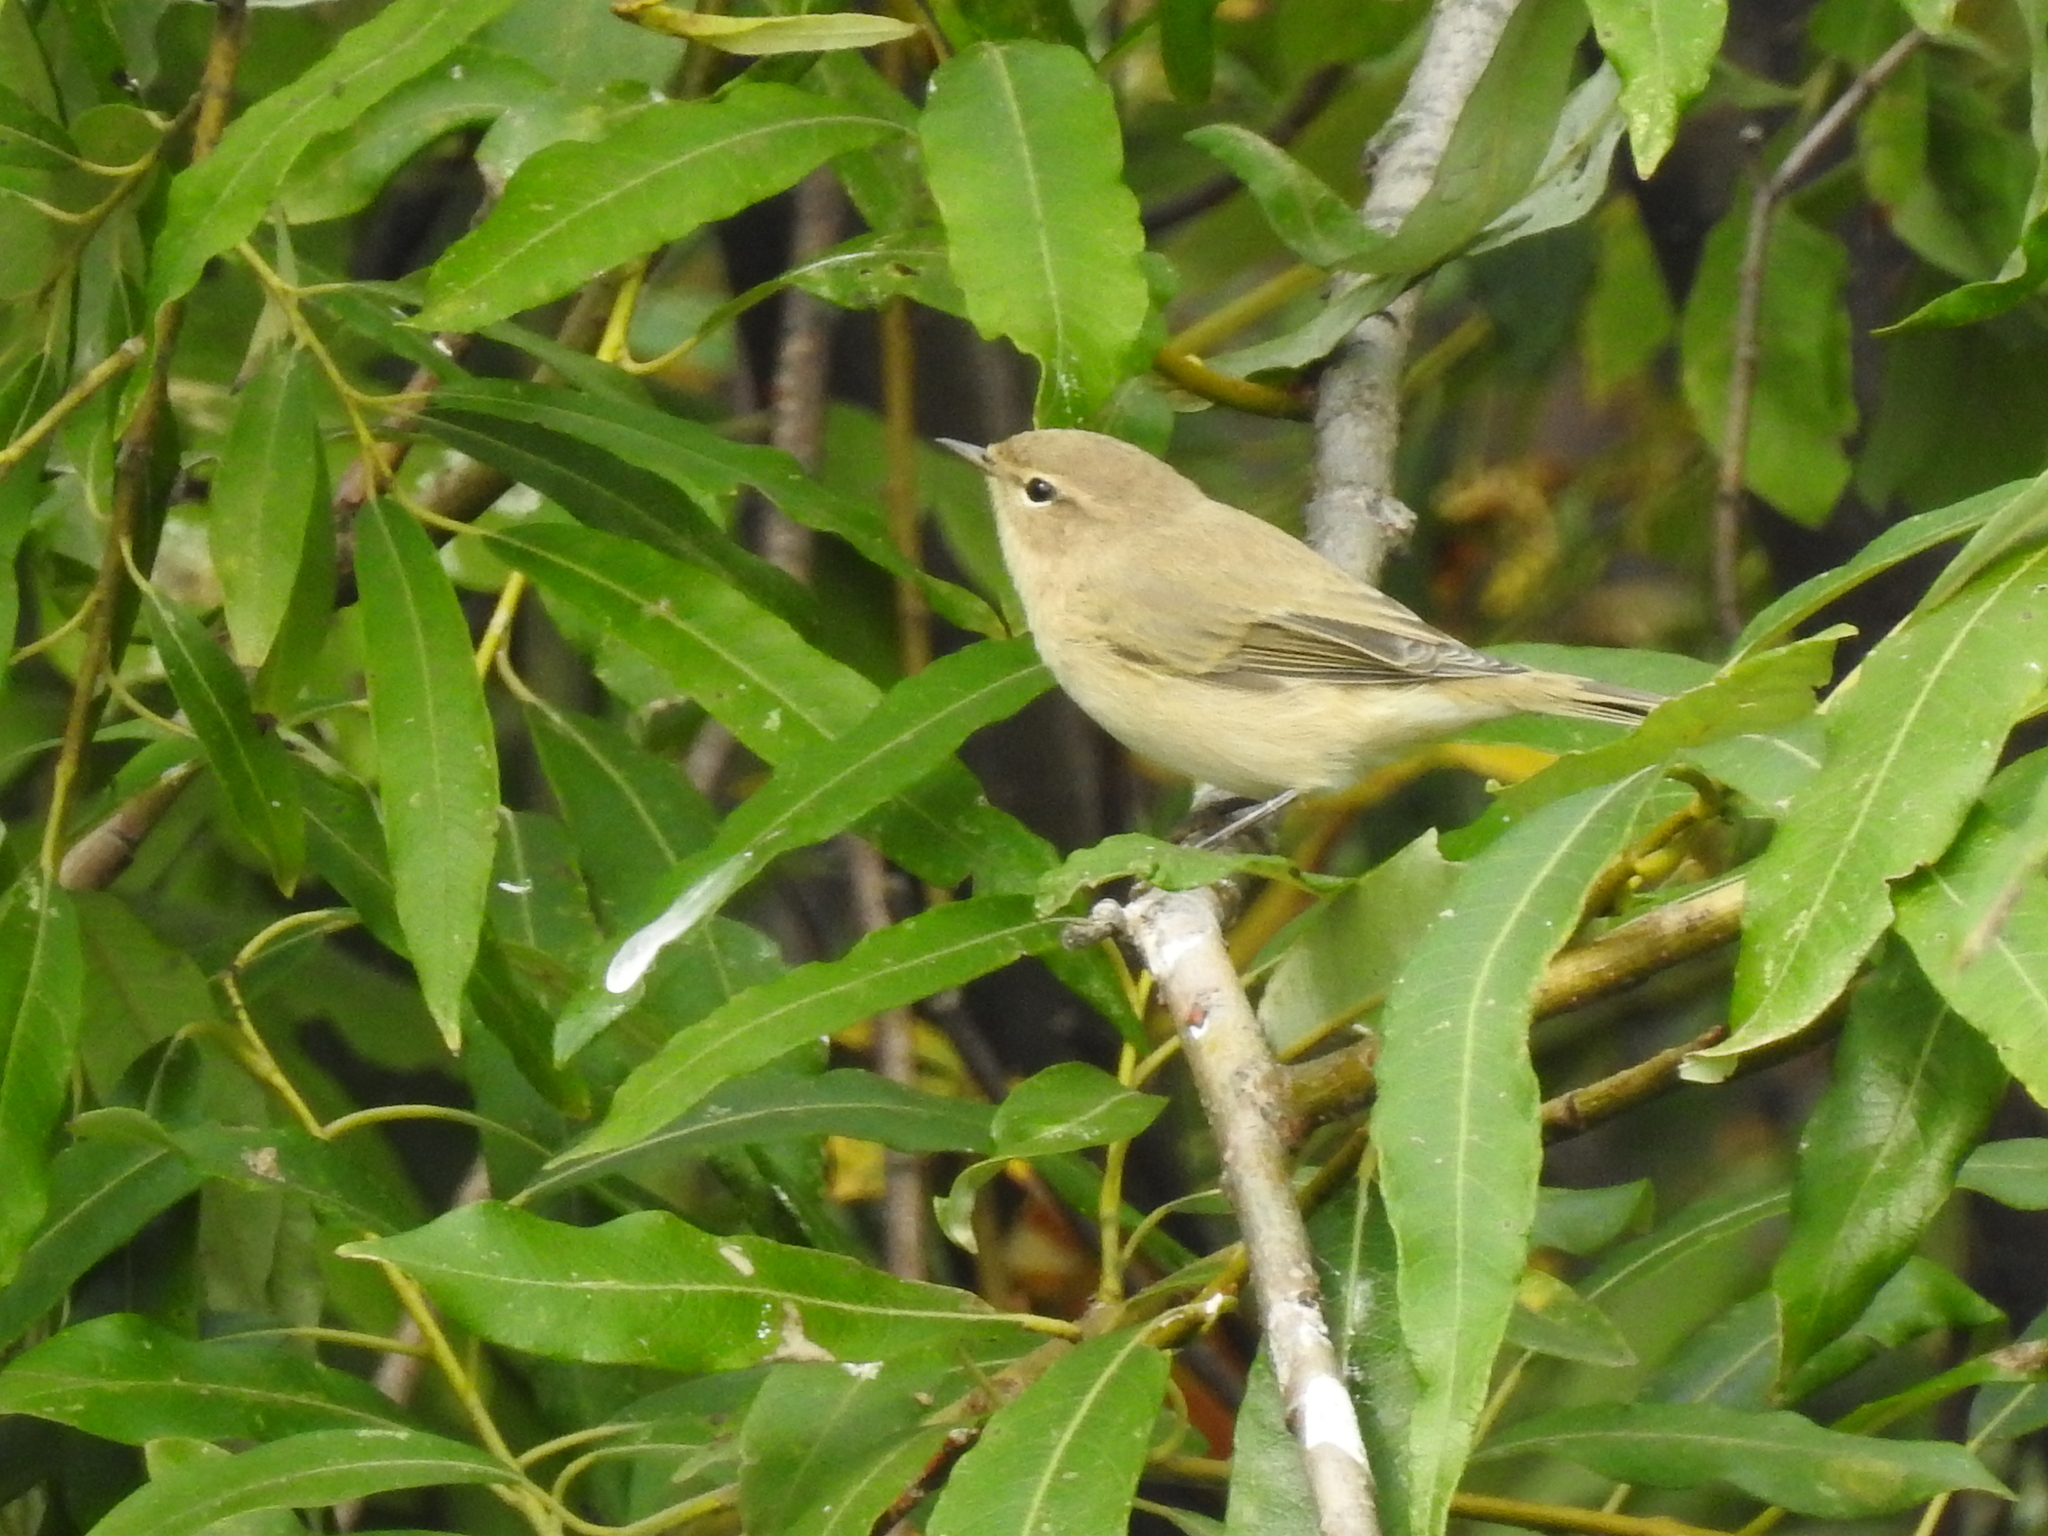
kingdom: Animalia
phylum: Chordata
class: Aves
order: Passeriformes
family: Phylloscopidae
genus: Phylloscopus
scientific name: Phylloscopus collybita
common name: Common chiffchaff
